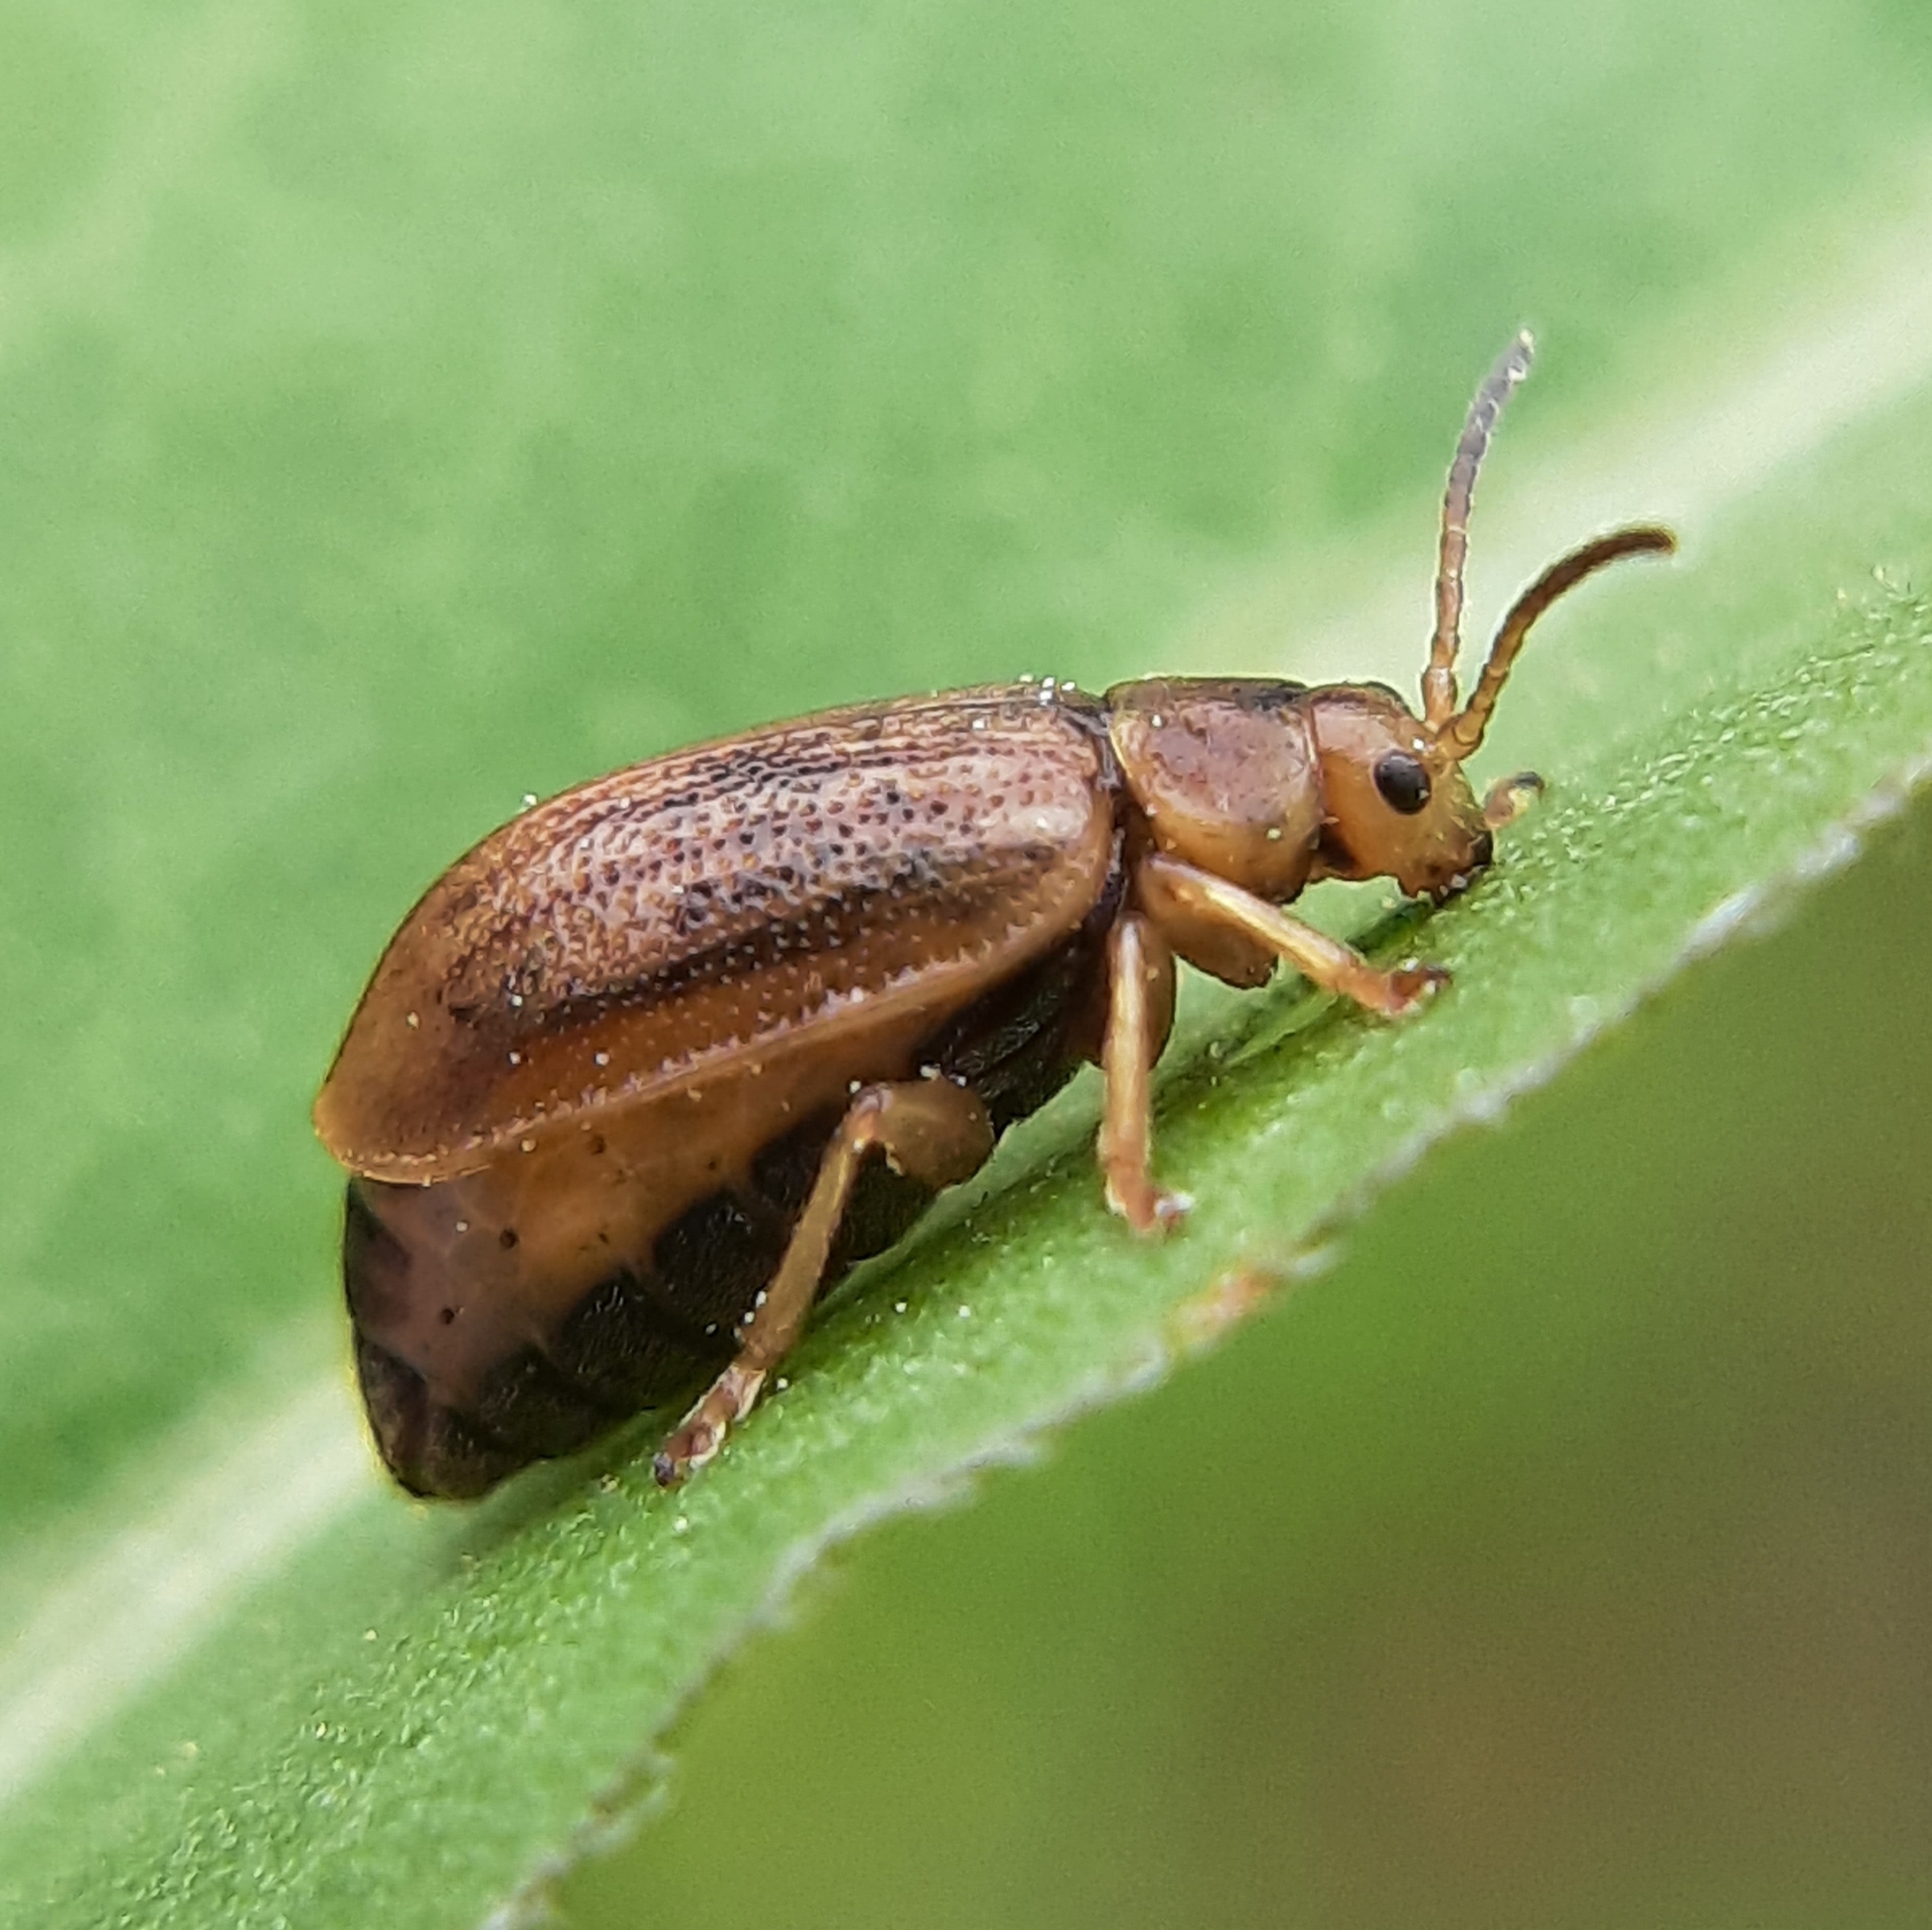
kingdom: Animalia
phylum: Arthropoda
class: Insecta
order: Coleoptera
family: Chrysomelidae
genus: Ophraella
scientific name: Ophraella cribrata
